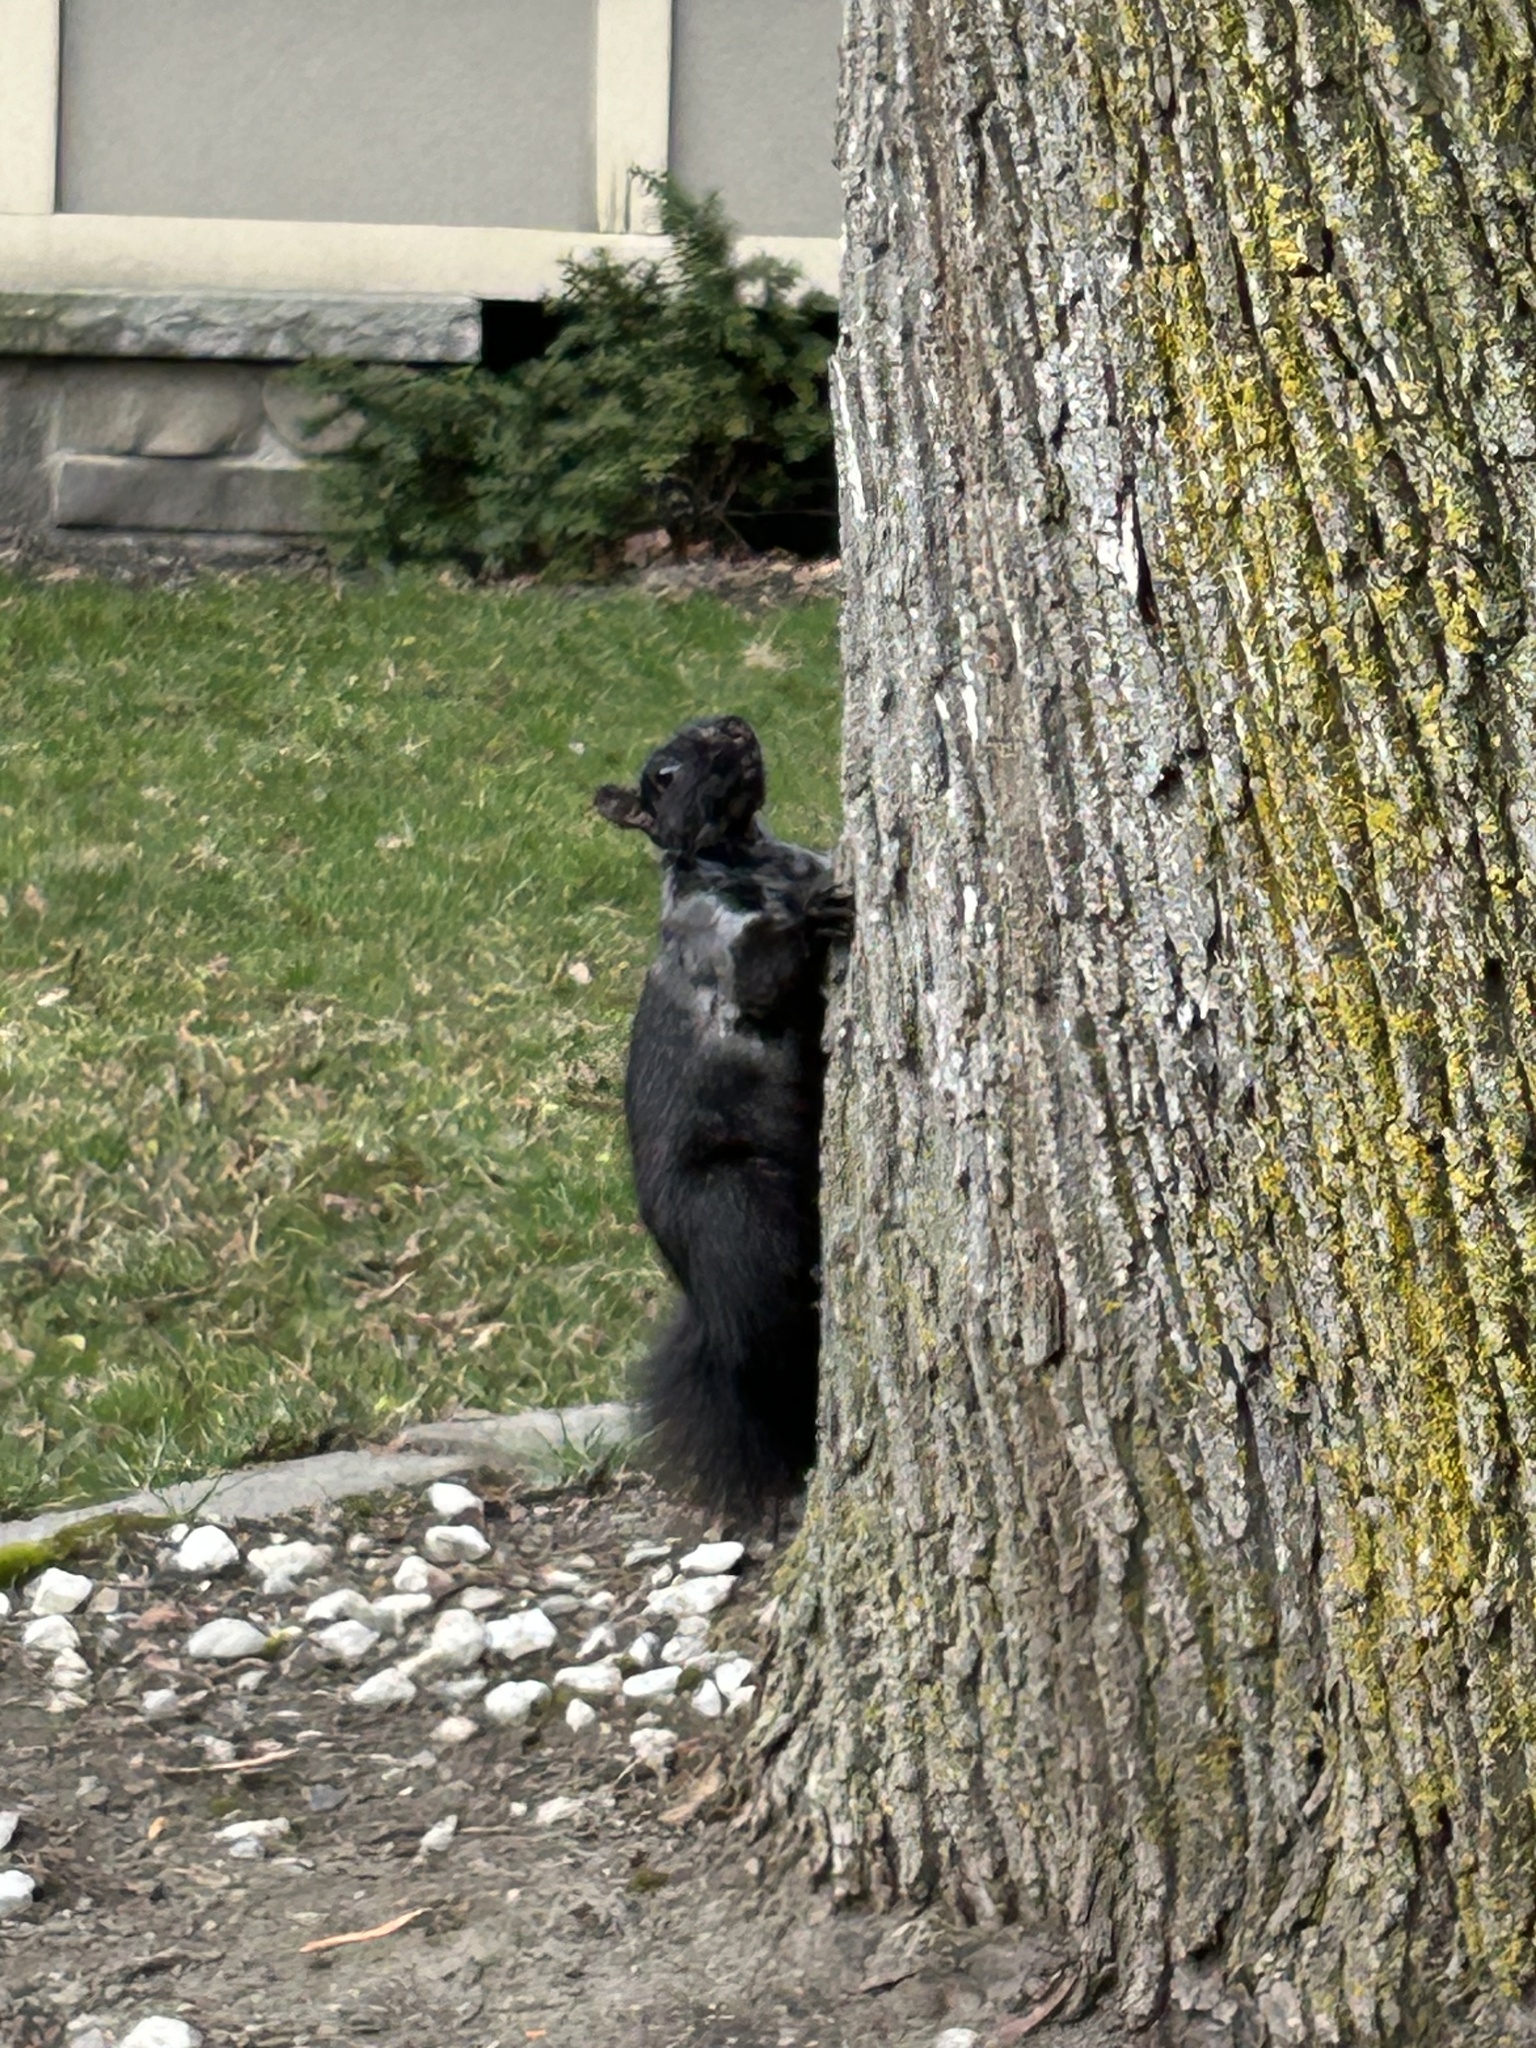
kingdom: Animalia
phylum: Chordata
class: Mammalia
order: Rodentia
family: Sciuridae
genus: Sciurus
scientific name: Sciurus carolinensis
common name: Eastern gray squirrel
